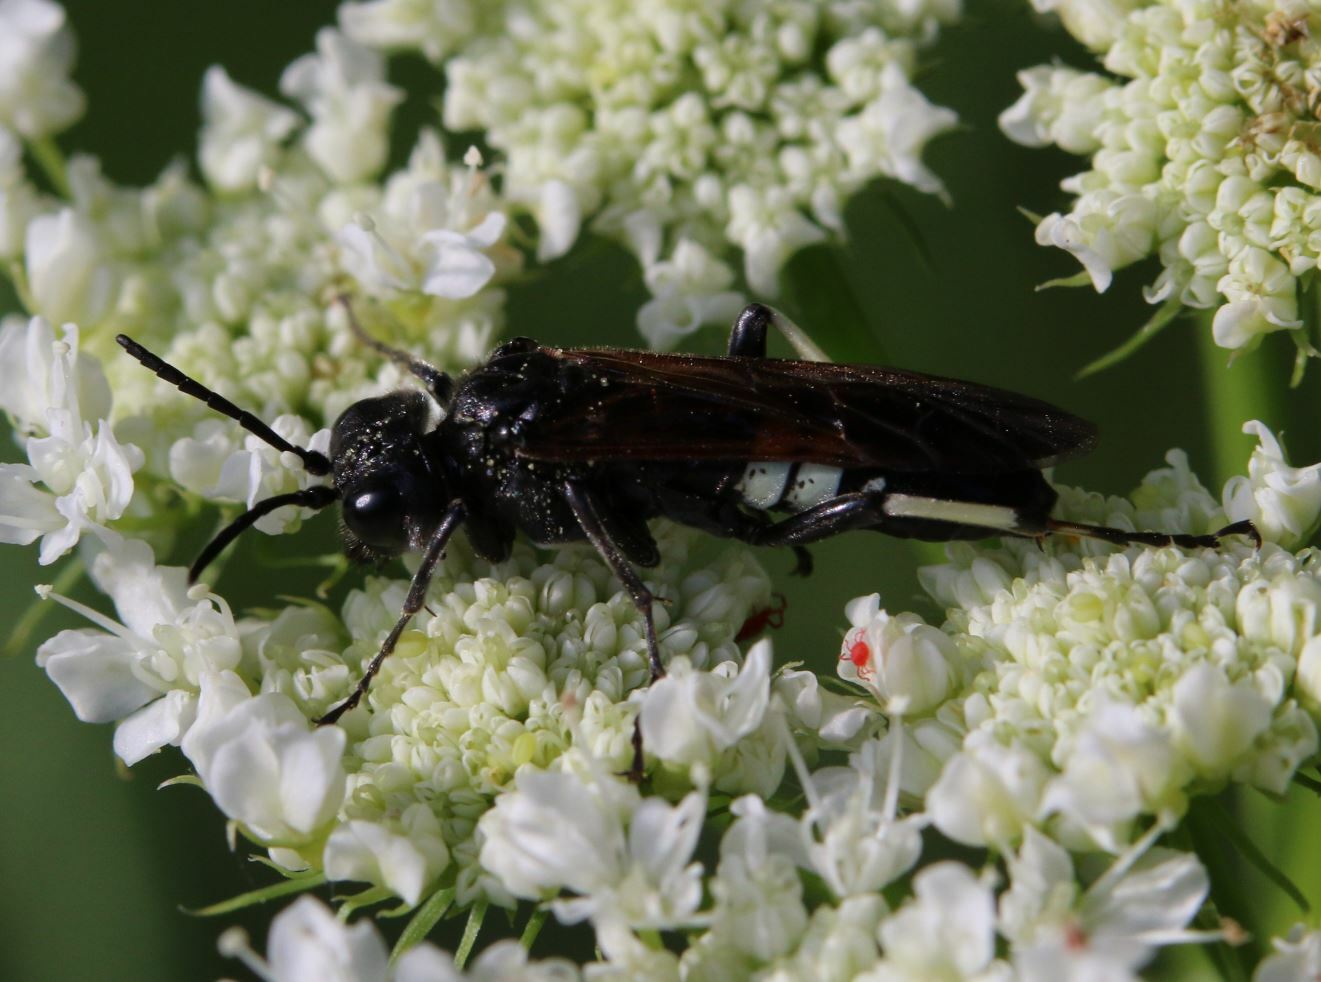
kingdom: Animalia
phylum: Arthropoda
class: Insecta
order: Hymenoptera
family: Tenthredinidae
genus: Tenthredo
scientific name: Tenthredo bifasciata
